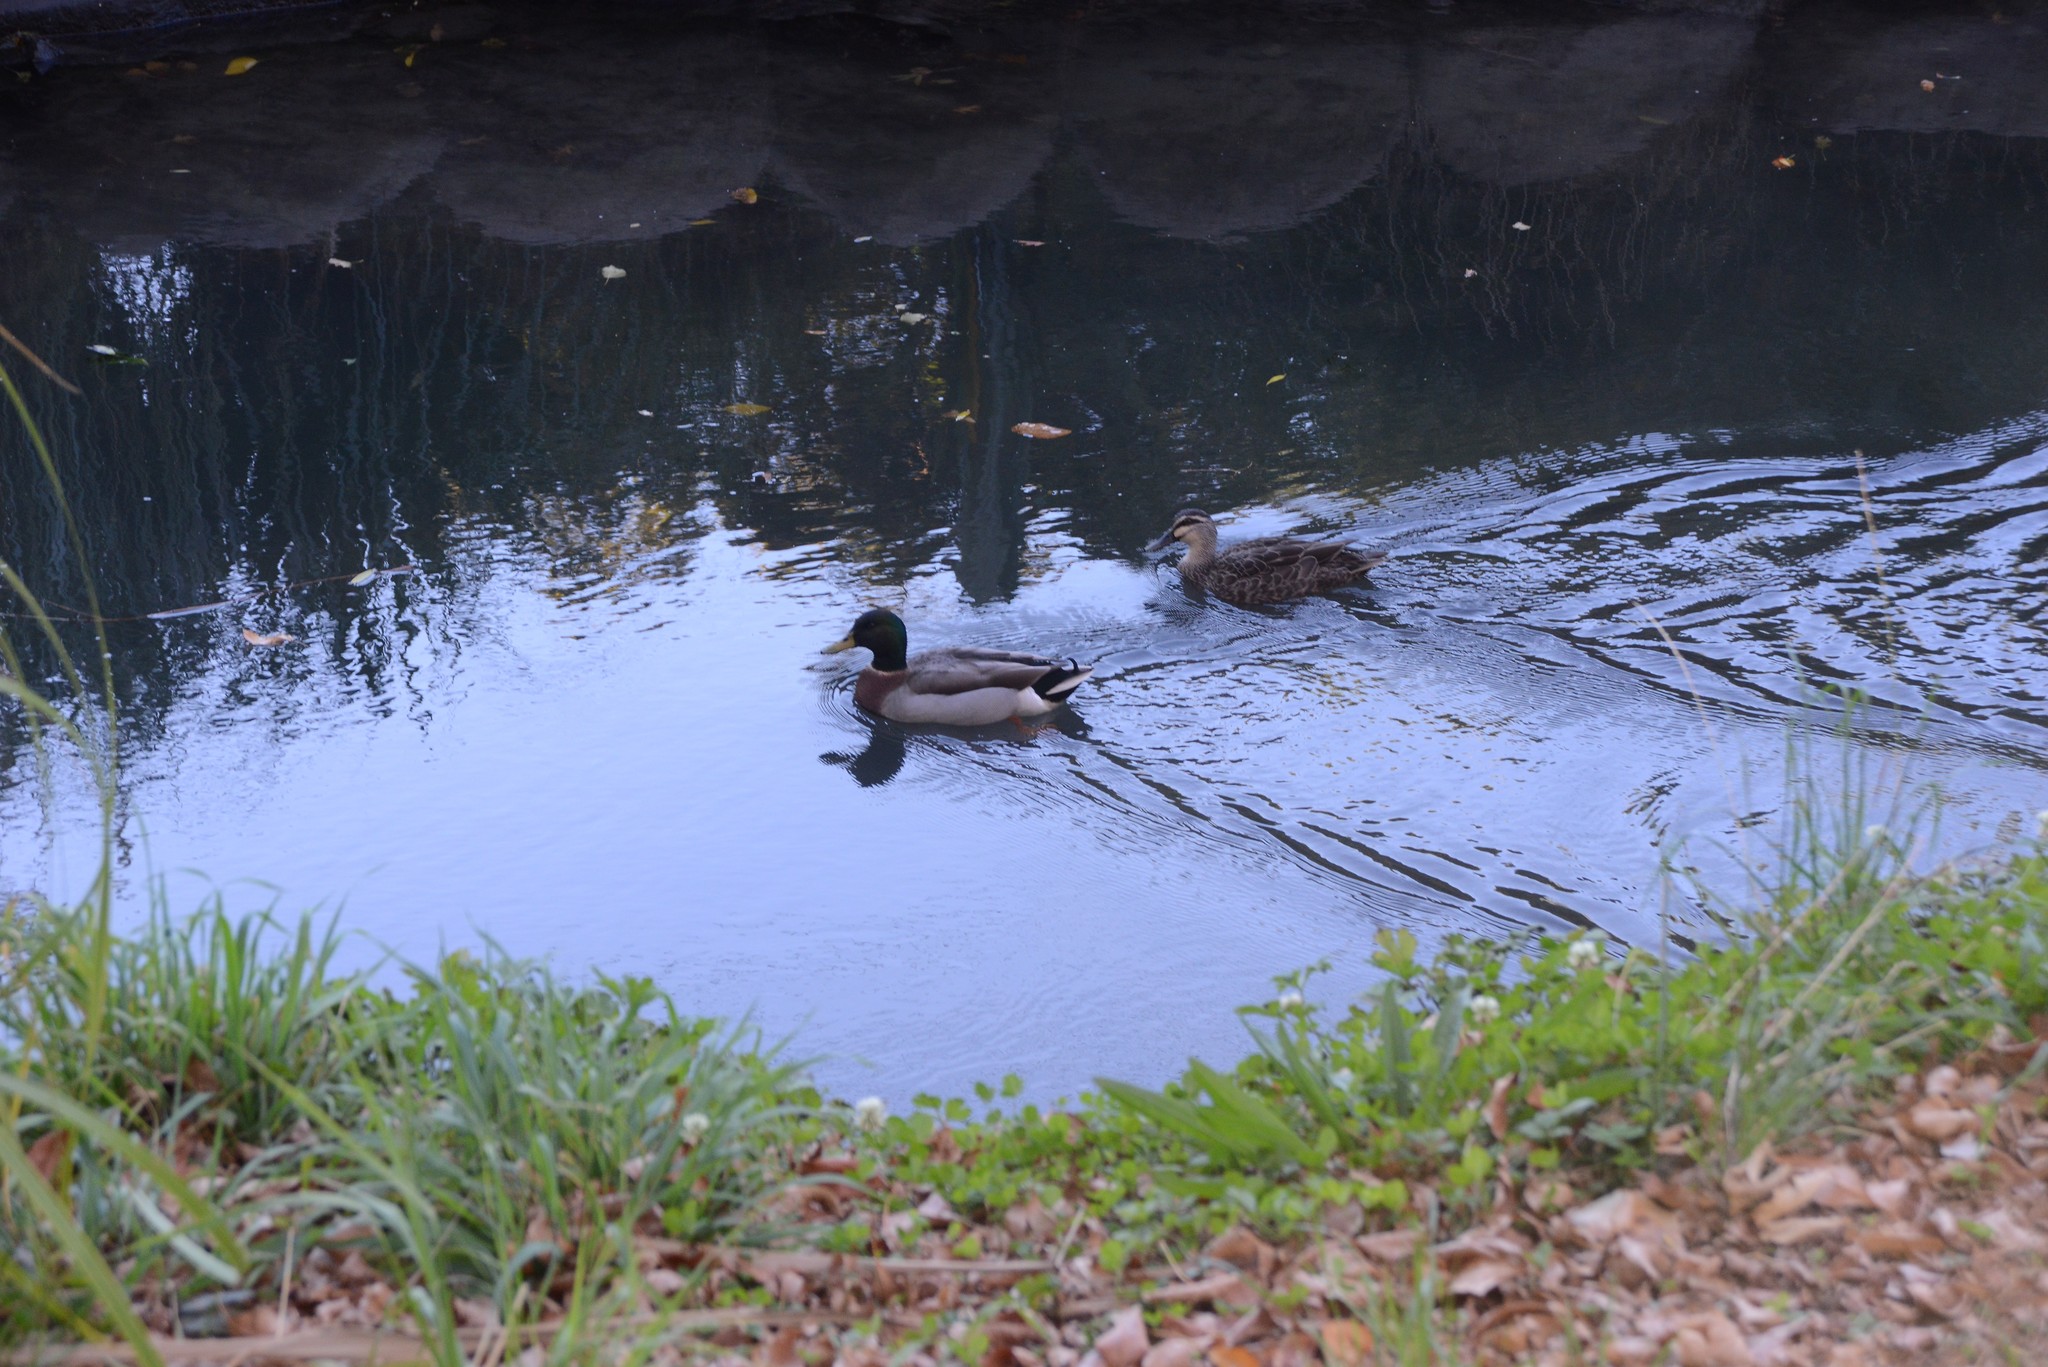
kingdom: Animalia
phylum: Chordata
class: Aves
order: Anseriformes
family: Anatidae
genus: Anas
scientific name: Anas platyrhynchos
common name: Mallard
